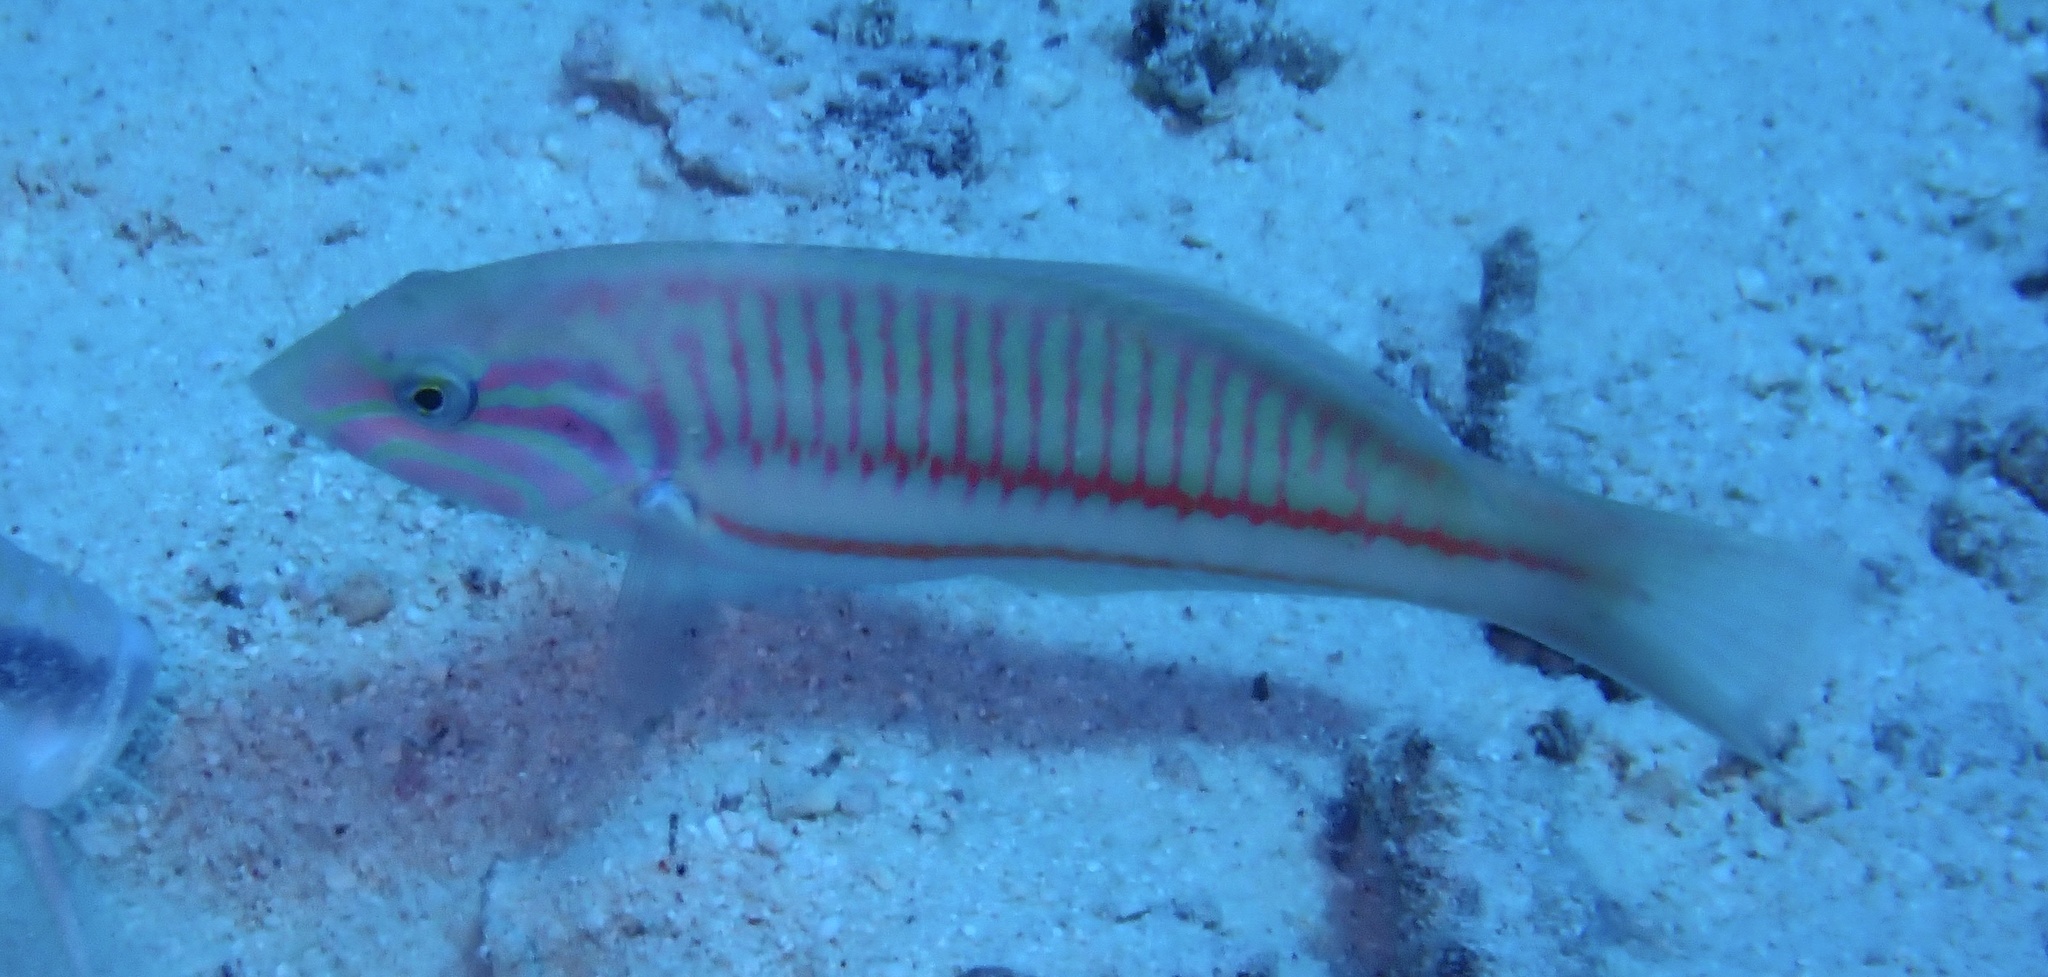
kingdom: Animalia
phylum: Chordata
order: Perciformes
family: Labridae
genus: Thalassoma
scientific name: Thalassoma rueppellii
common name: Klunzinger's wrasse
